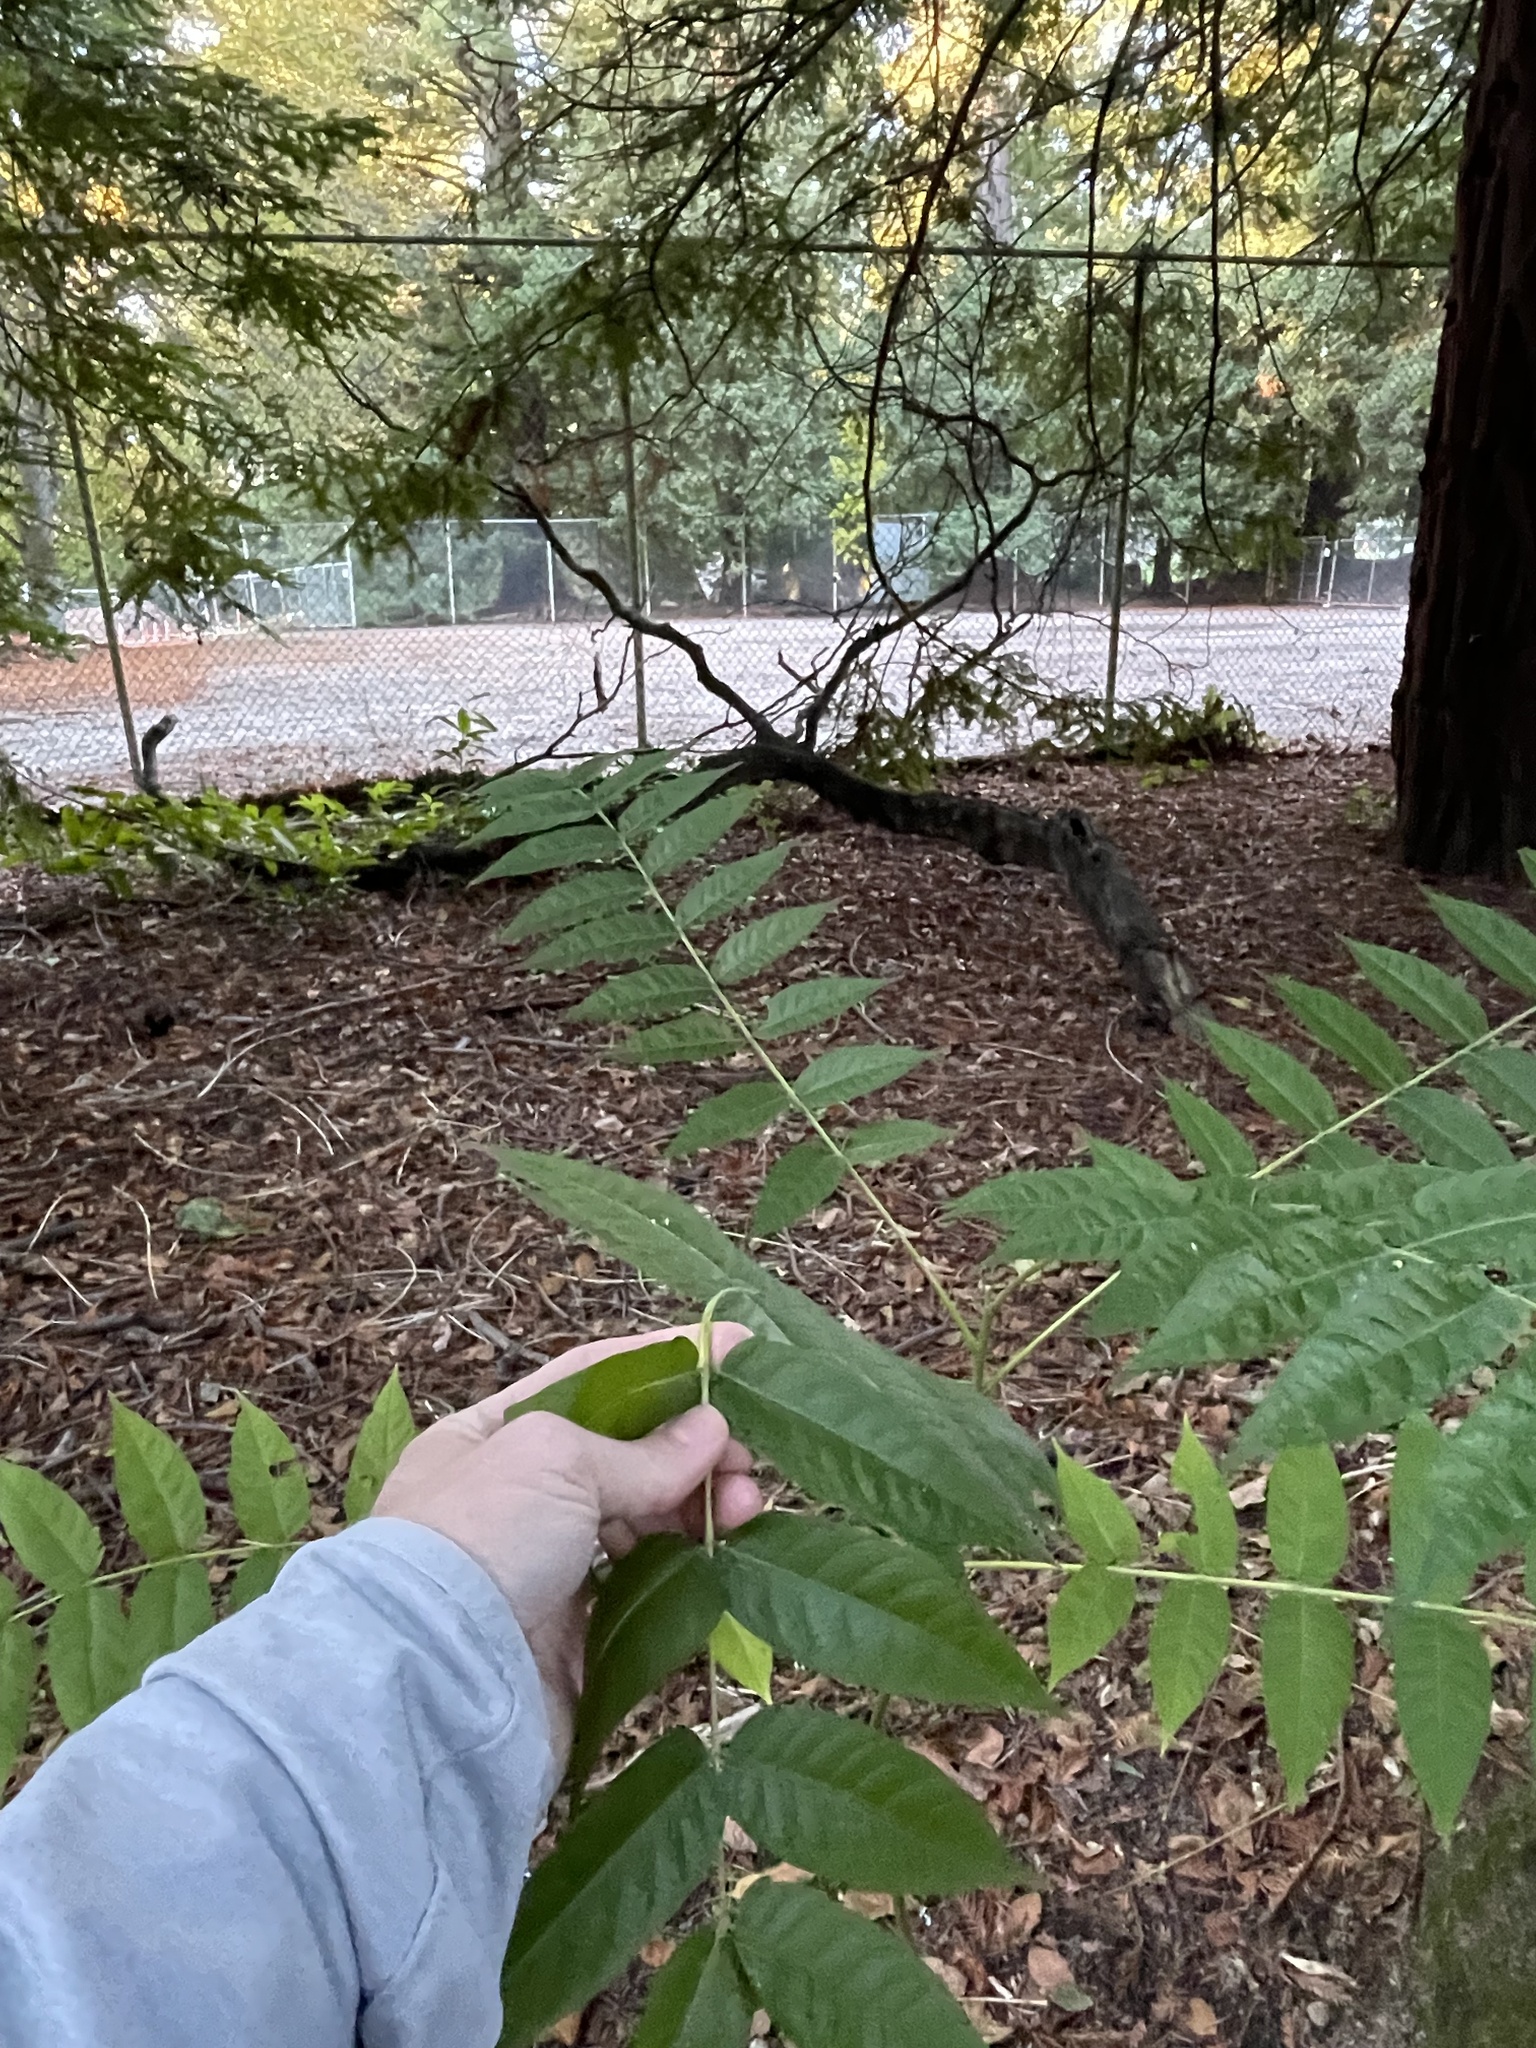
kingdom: Plantae
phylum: Tracheophyta
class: Magnoliopsida
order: Sapindales
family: Simaroubaceae
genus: Ailanthus
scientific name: Ailanthus altissima
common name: Tree-of-heaven
